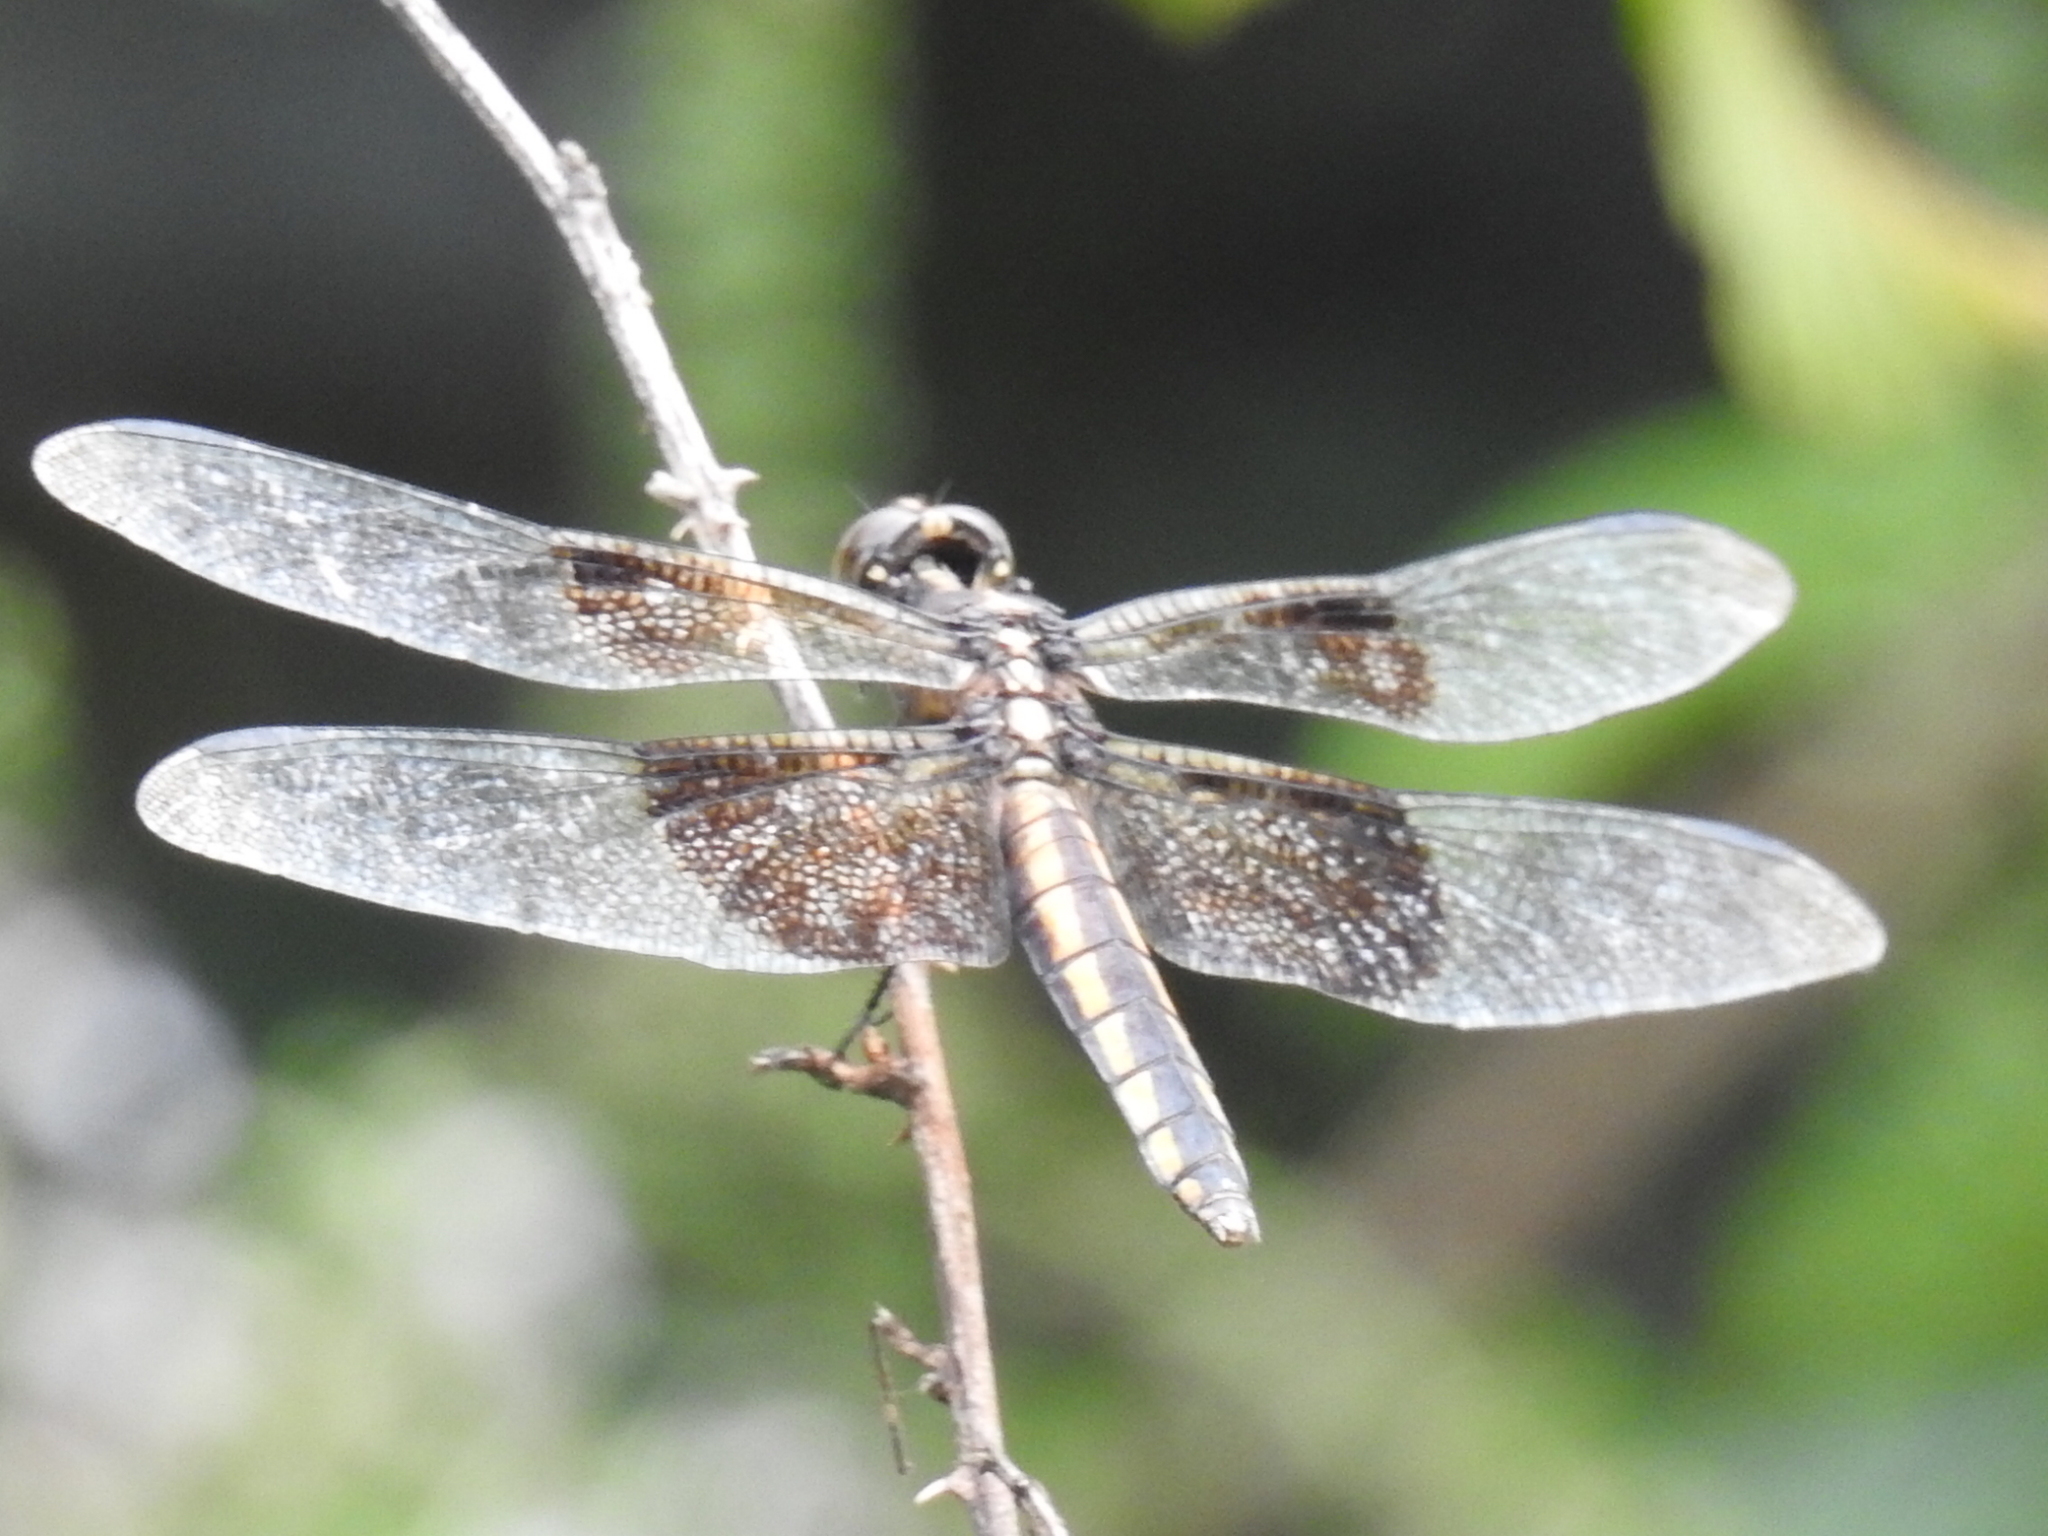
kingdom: Animalia
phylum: Arthropoda
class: Insecta
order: Odonata
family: Libellulidae
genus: Libellula
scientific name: Libellula luctuosa
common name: Widow skimmer
